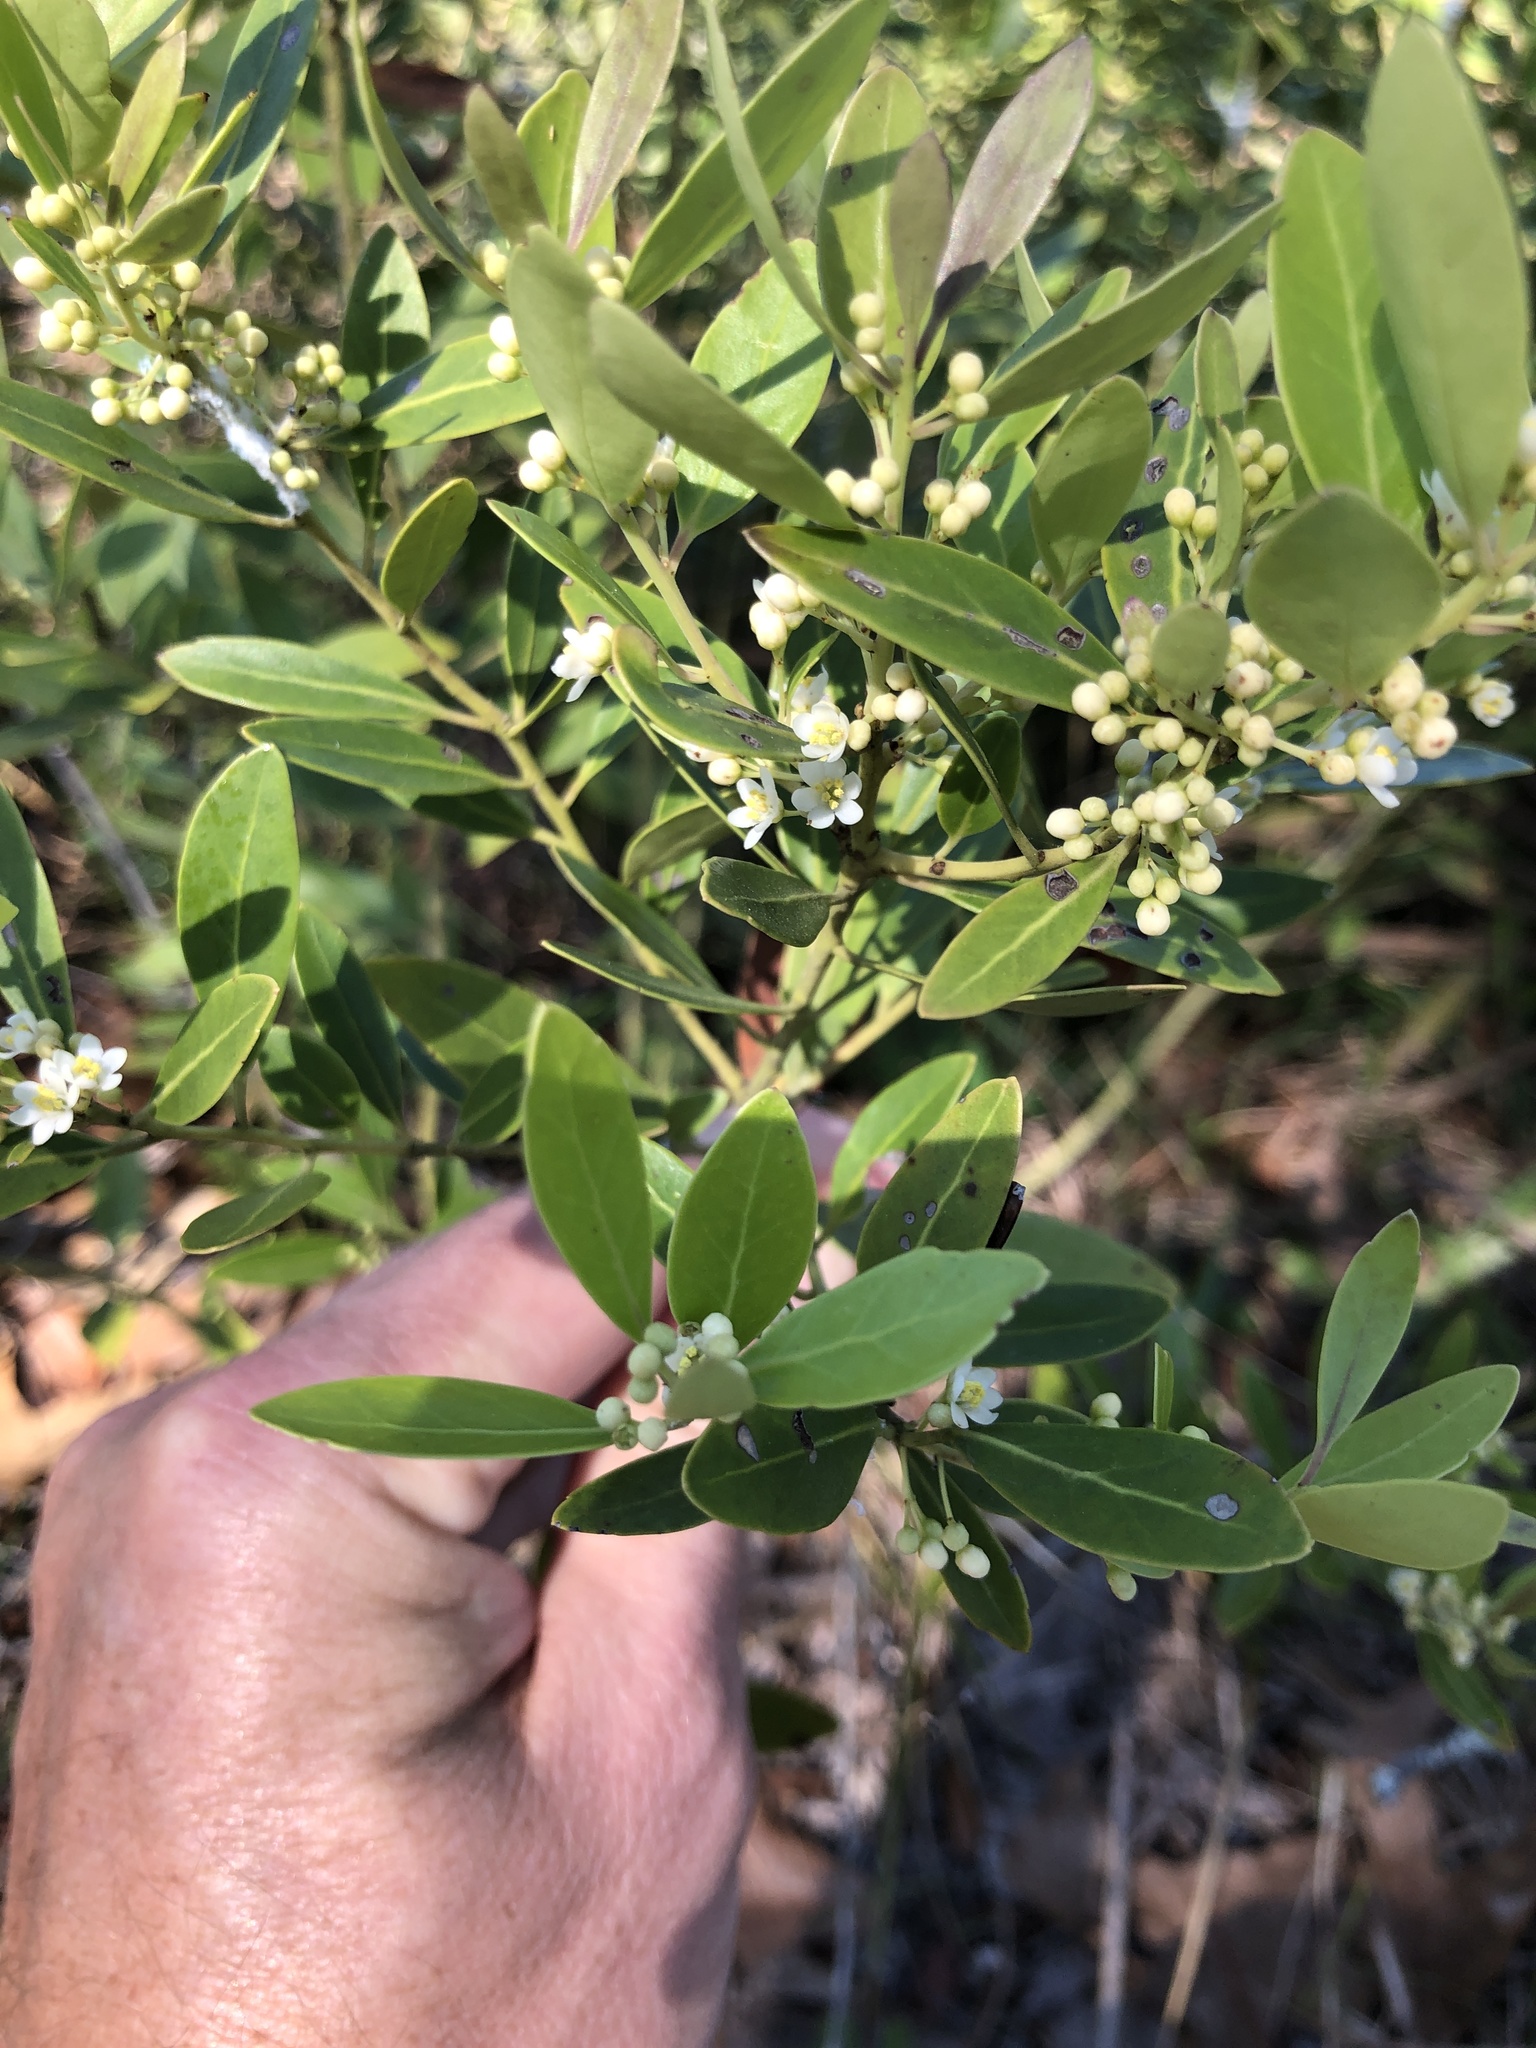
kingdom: Plantae
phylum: Tracheophyta
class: Magnoliopsida
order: Aquifoliales
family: Aquifoliaceae
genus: Ilex
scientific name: Ilex glabra
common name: Bitter gallberry
